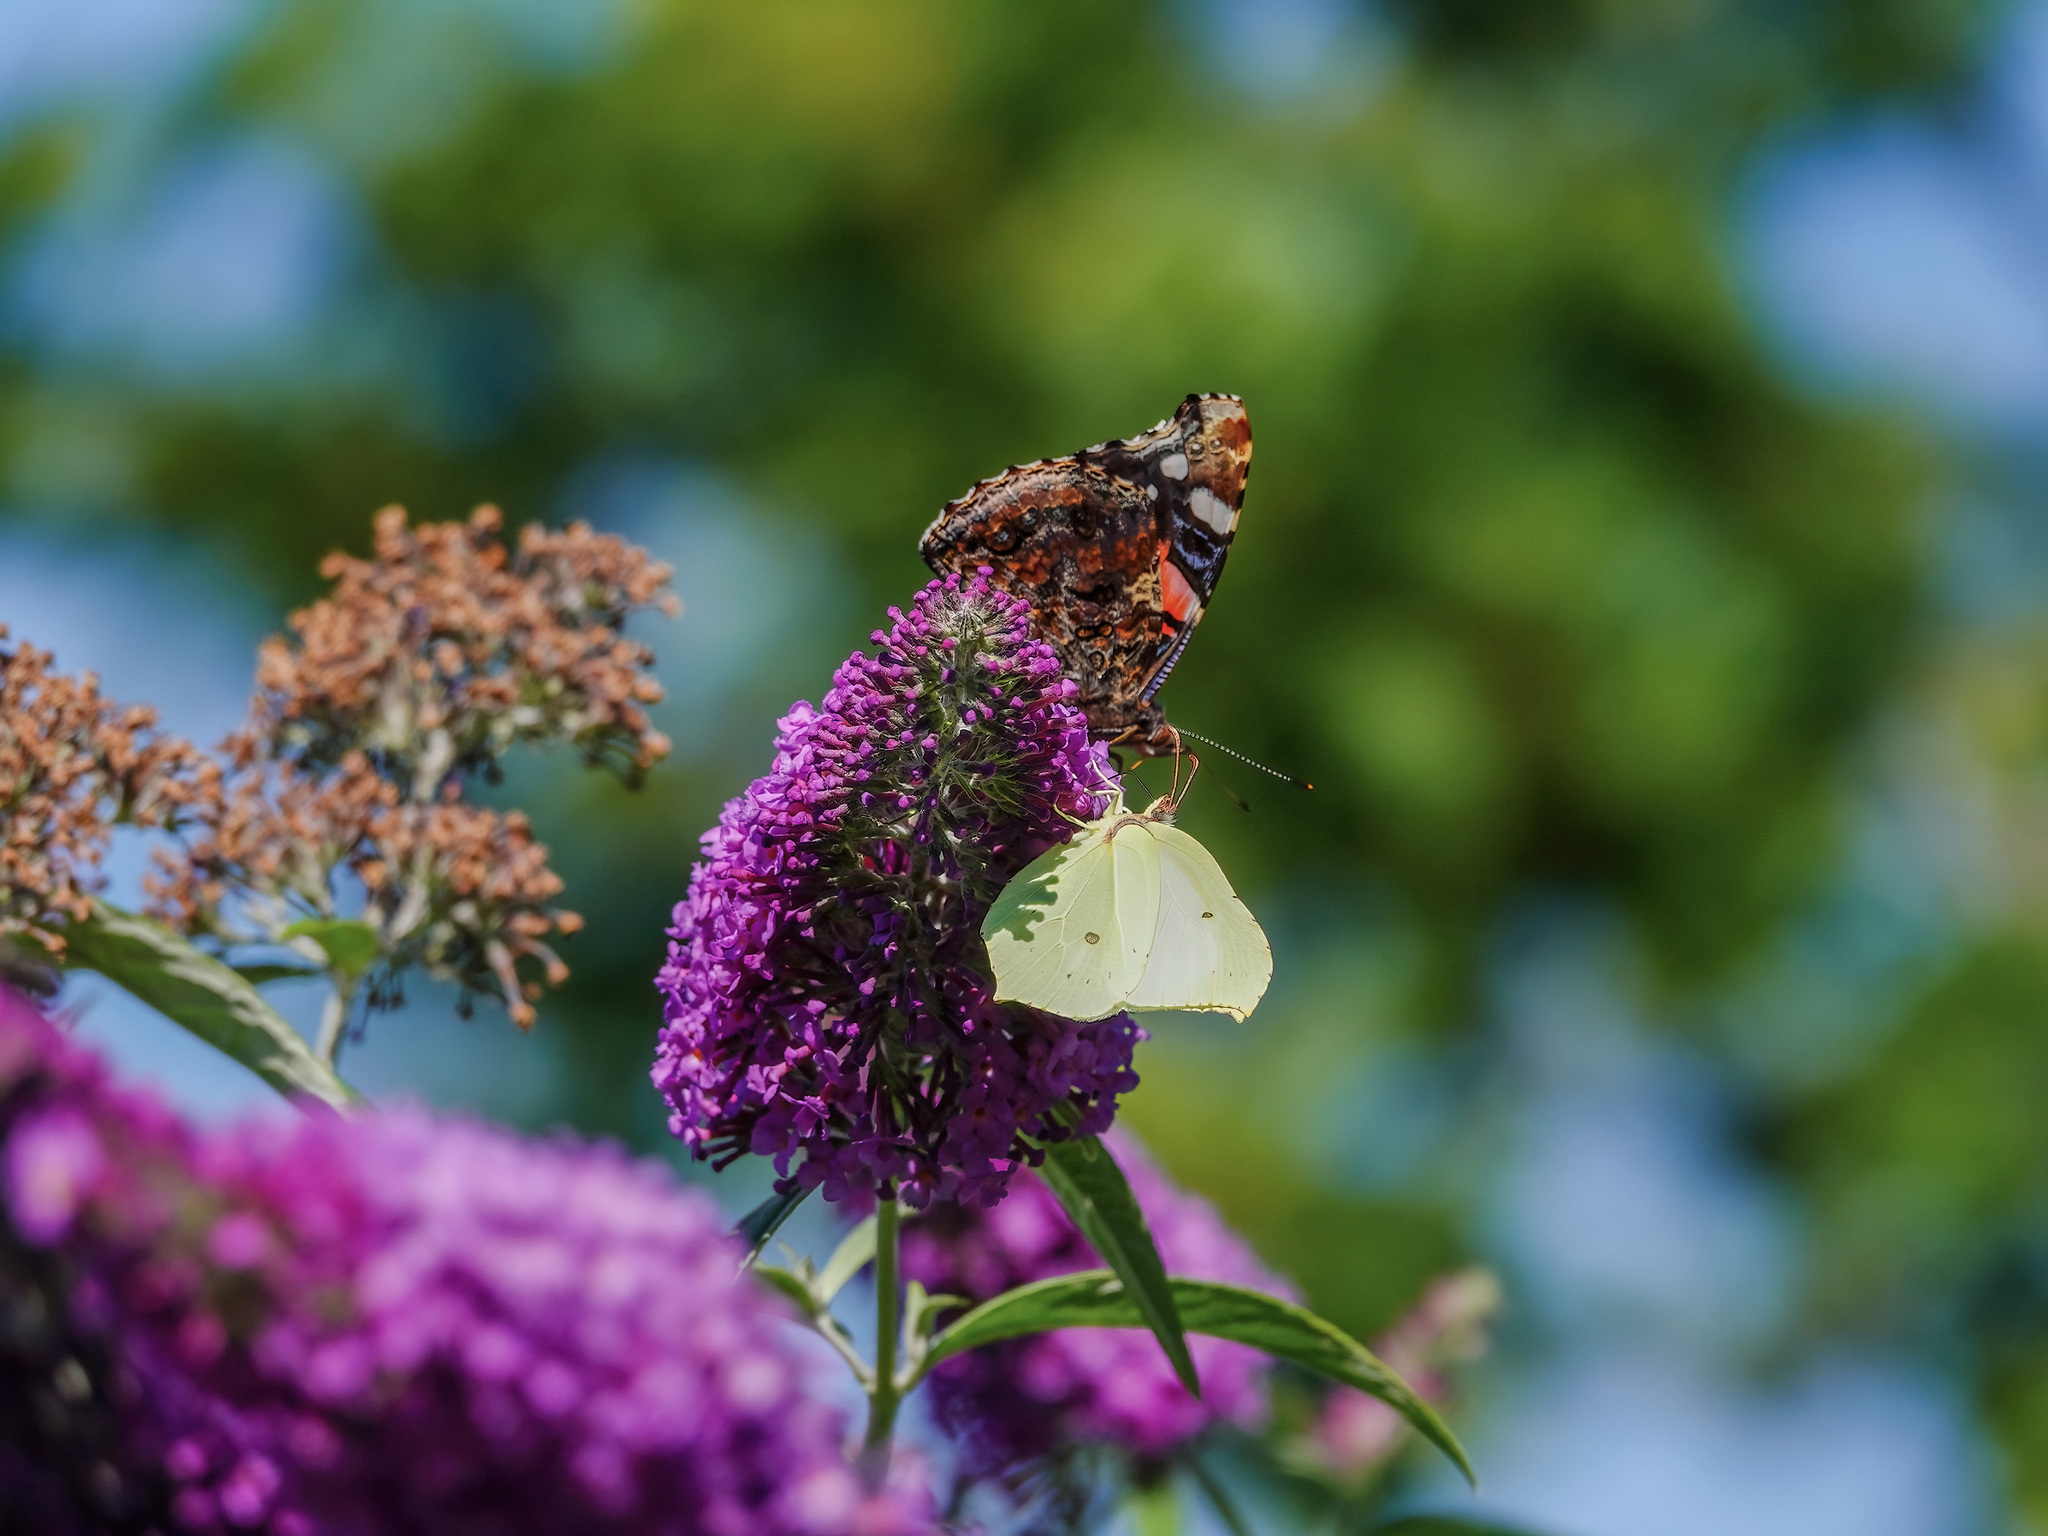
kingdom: Animalia
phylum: Arthropoda
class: Insecta
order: Lepidoptera
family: Pieridae
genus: Gonepteryx
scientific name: Gonepteryx rhamni
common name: Brimstone
